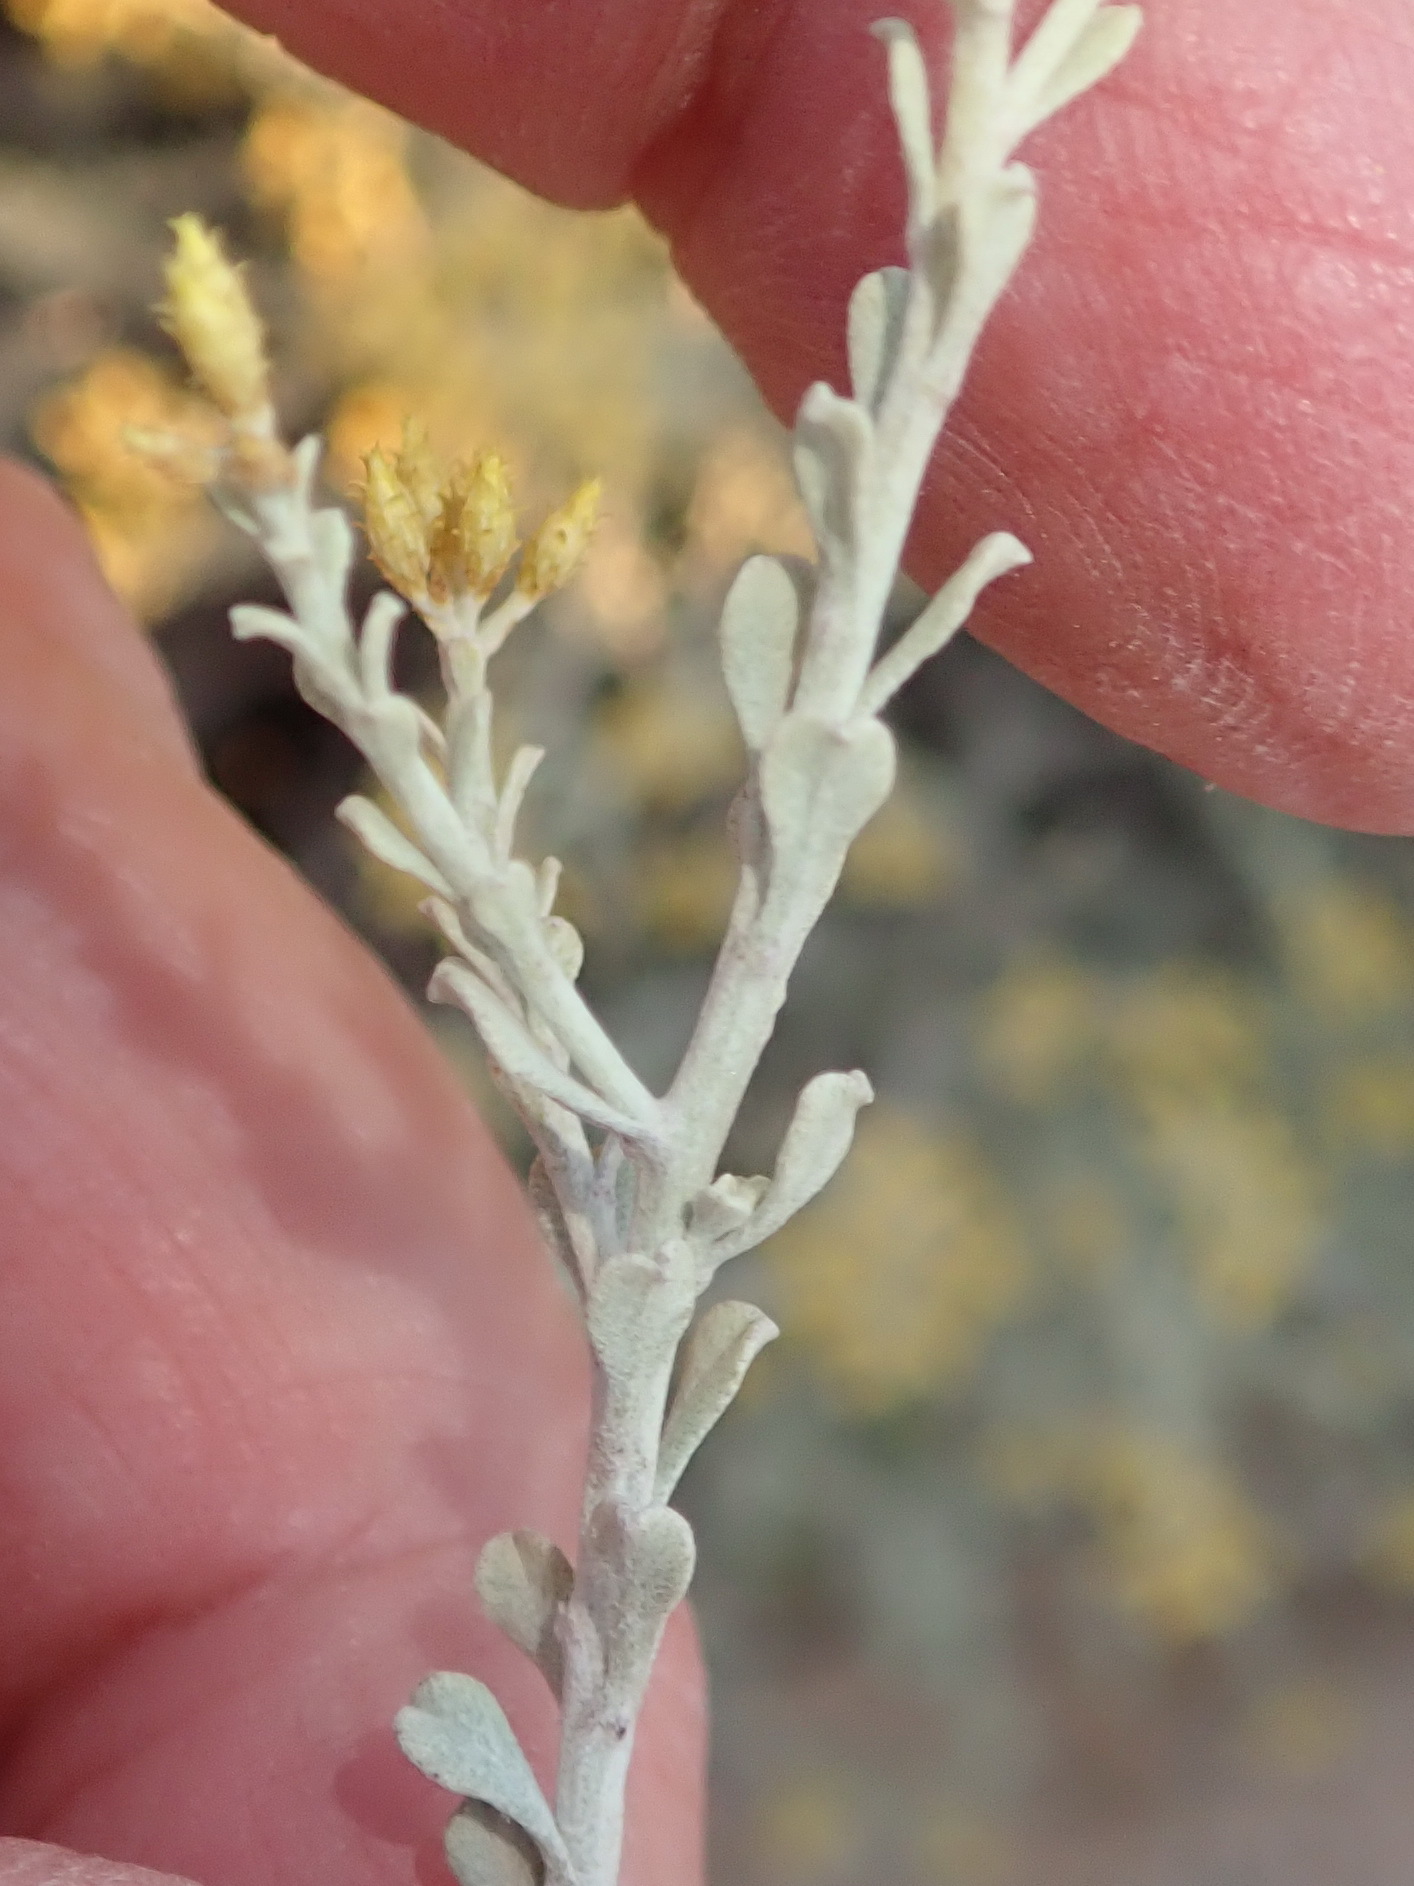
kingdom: Plantae
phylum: Tracheophyta
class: Magnoliopsida
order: Asterales
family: Asteraceae
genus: Helichrysum
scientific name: Helichrysum excisum
